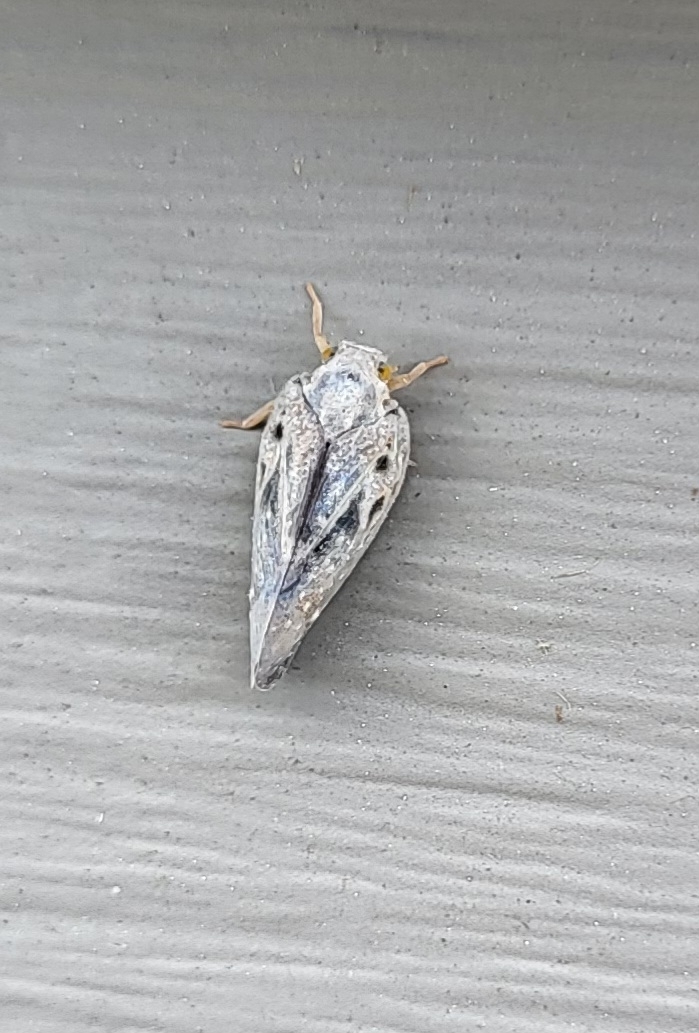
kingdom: Animalia
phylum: Arthropoda
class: Insecta
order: Hemiptera
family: Flatidae
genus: Metcalfa
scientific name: Metcalfa pruinosa
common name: Citrus flatid planthopper
